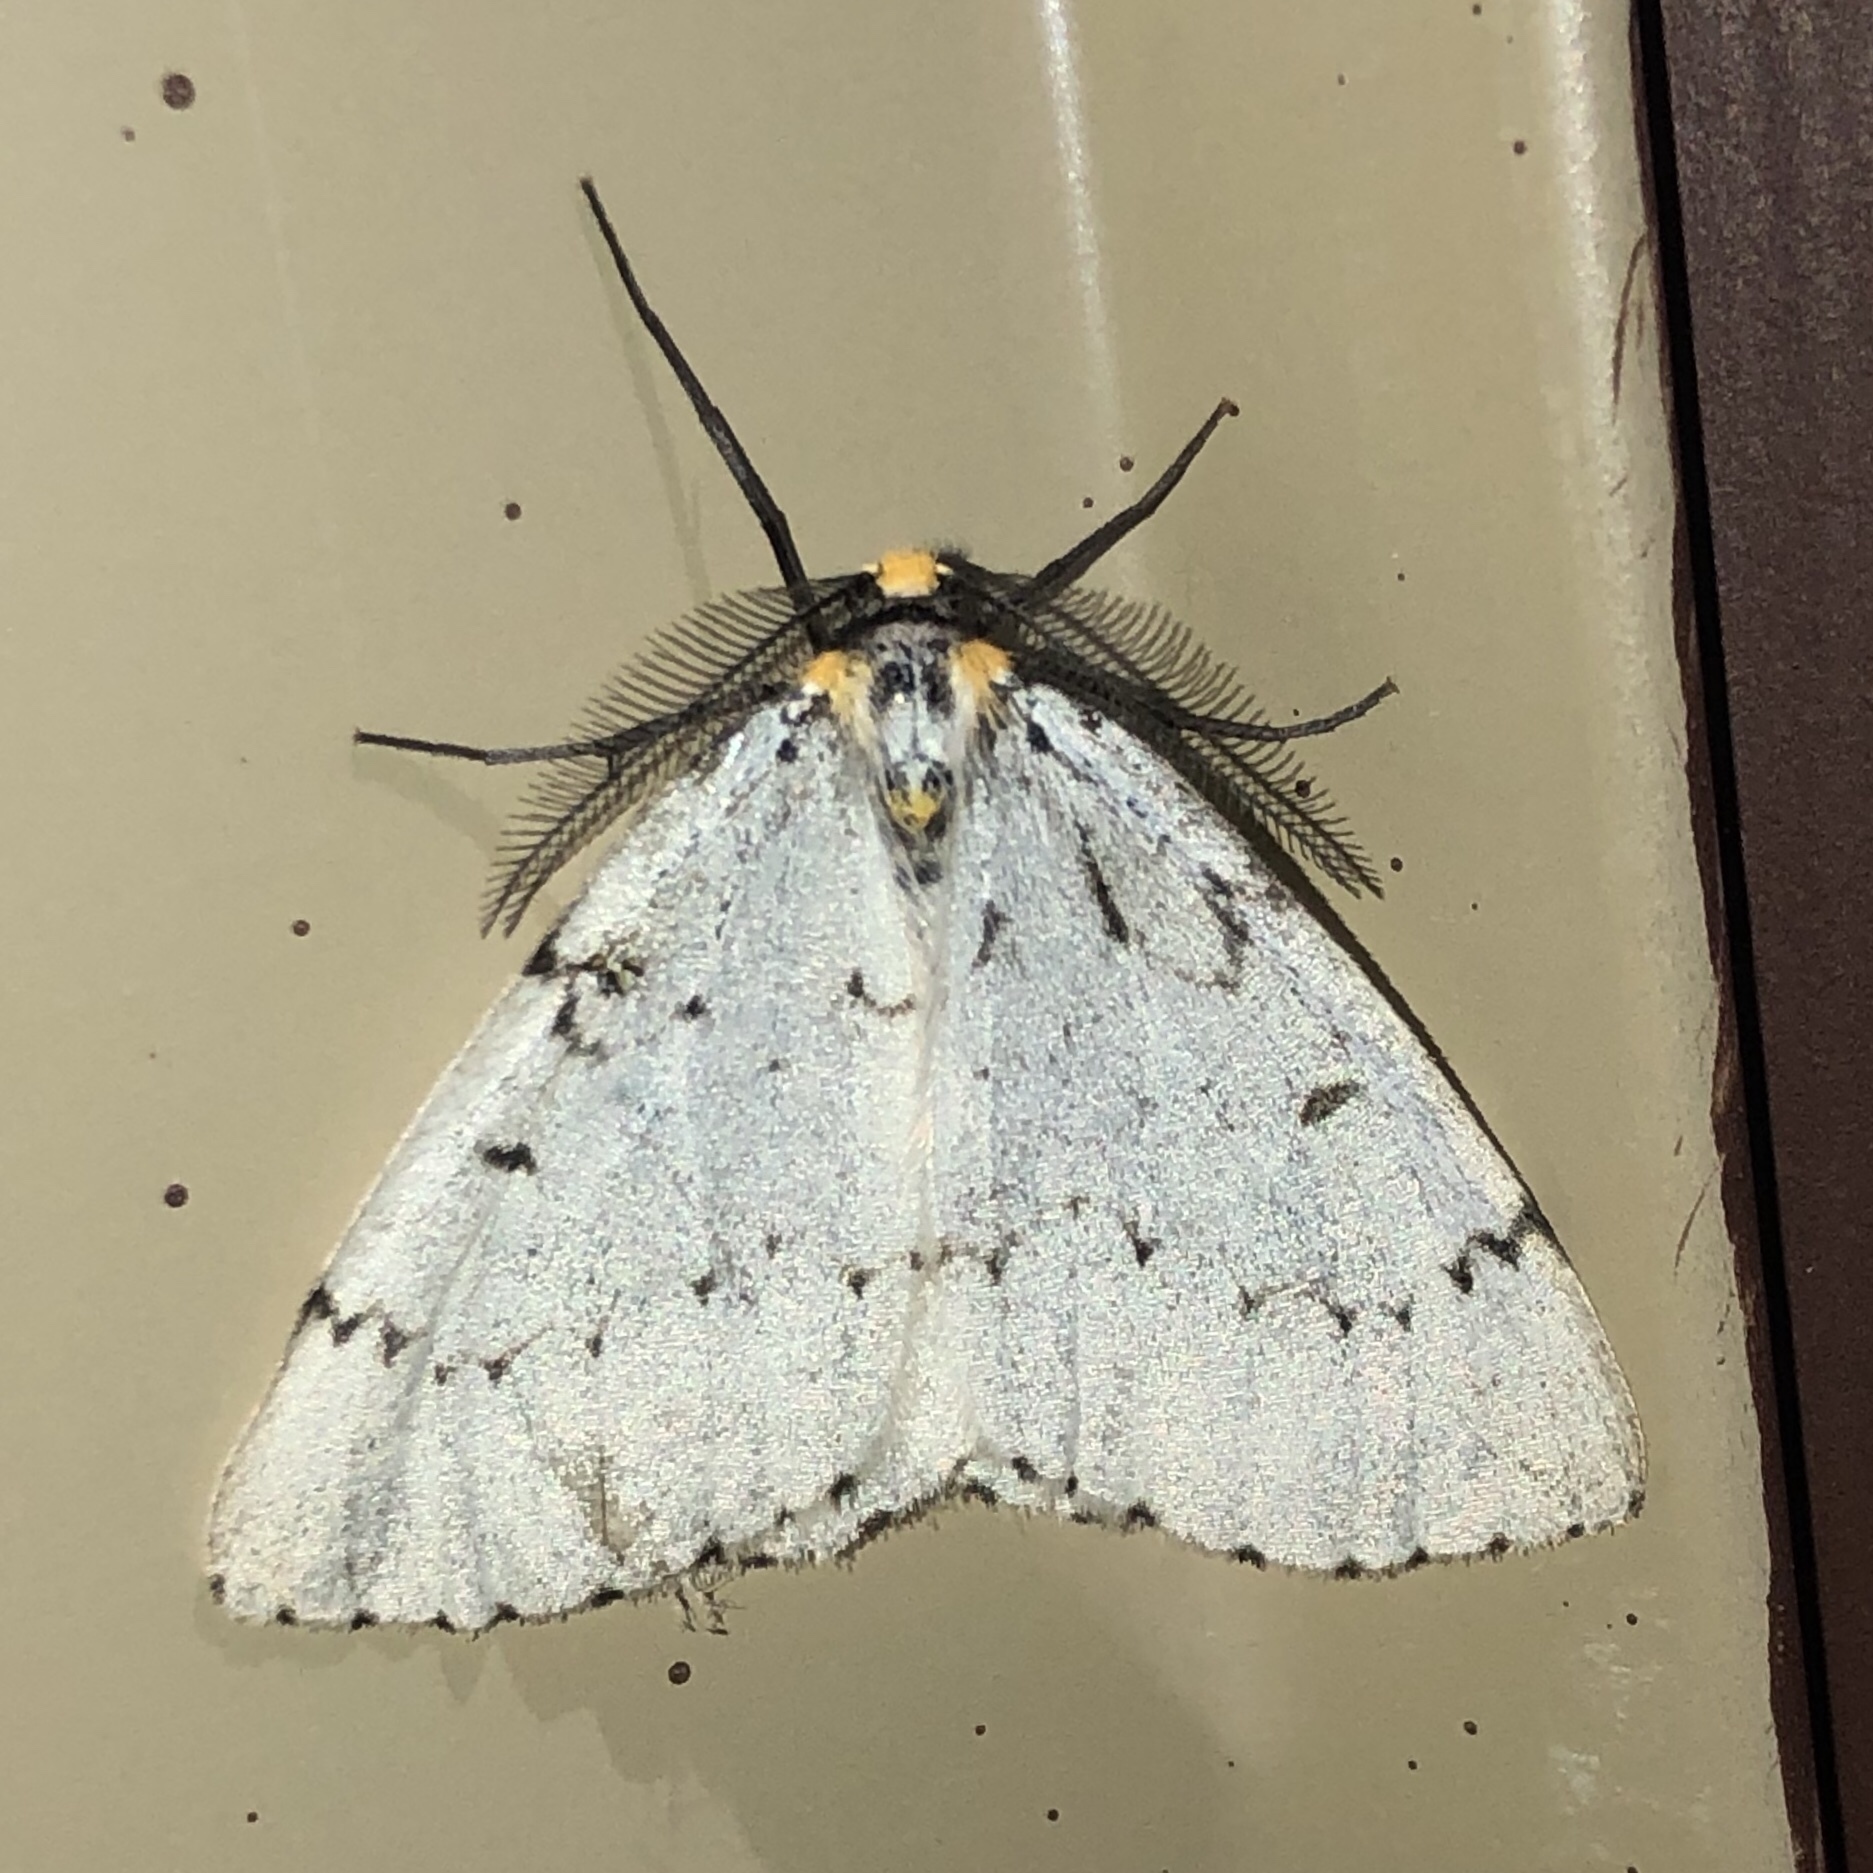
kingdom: Animalia
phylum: Arthropoda
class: Insecta
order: Lepidoptera
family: Geometridae
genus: Cingilia
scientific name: Cingilia catenaria
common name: Chain-dotted geometer
